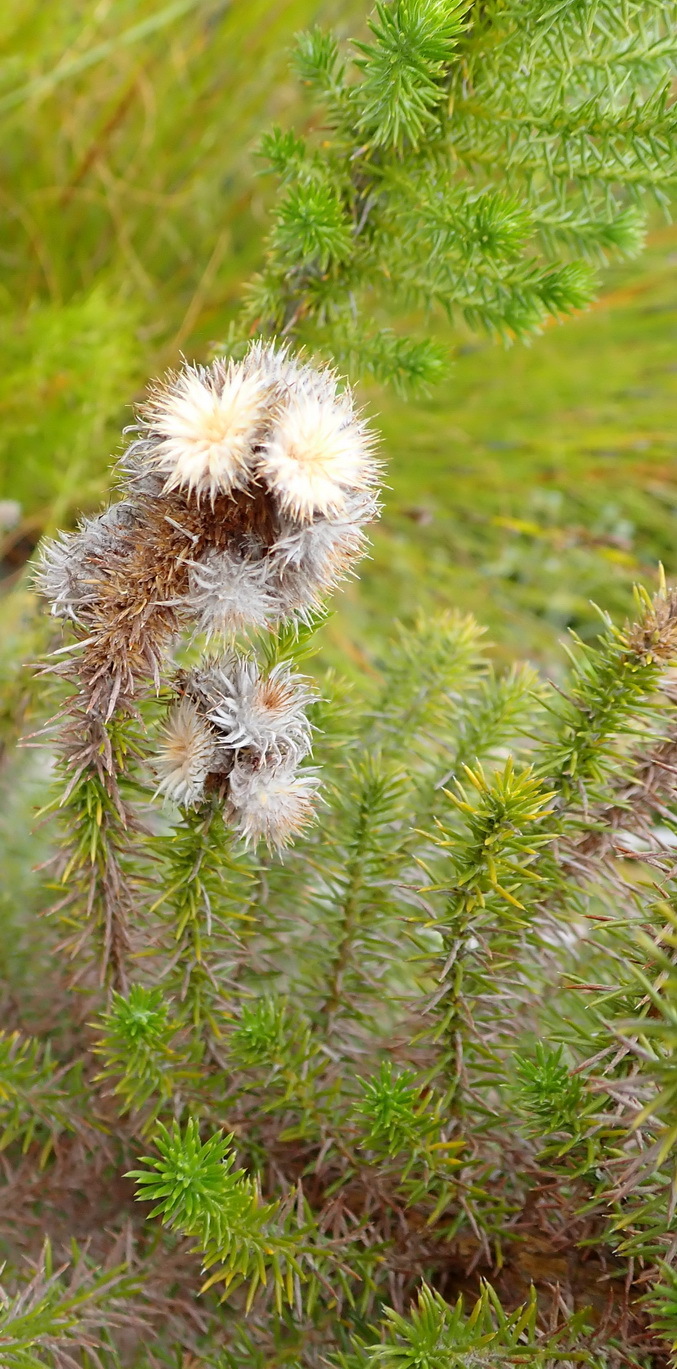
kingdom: Plantae
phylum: Tracheophyta
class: Magnoliopsida
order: Asterales
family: Asteraceae
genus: Stoebe
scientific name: Stoebe alopecuroides
